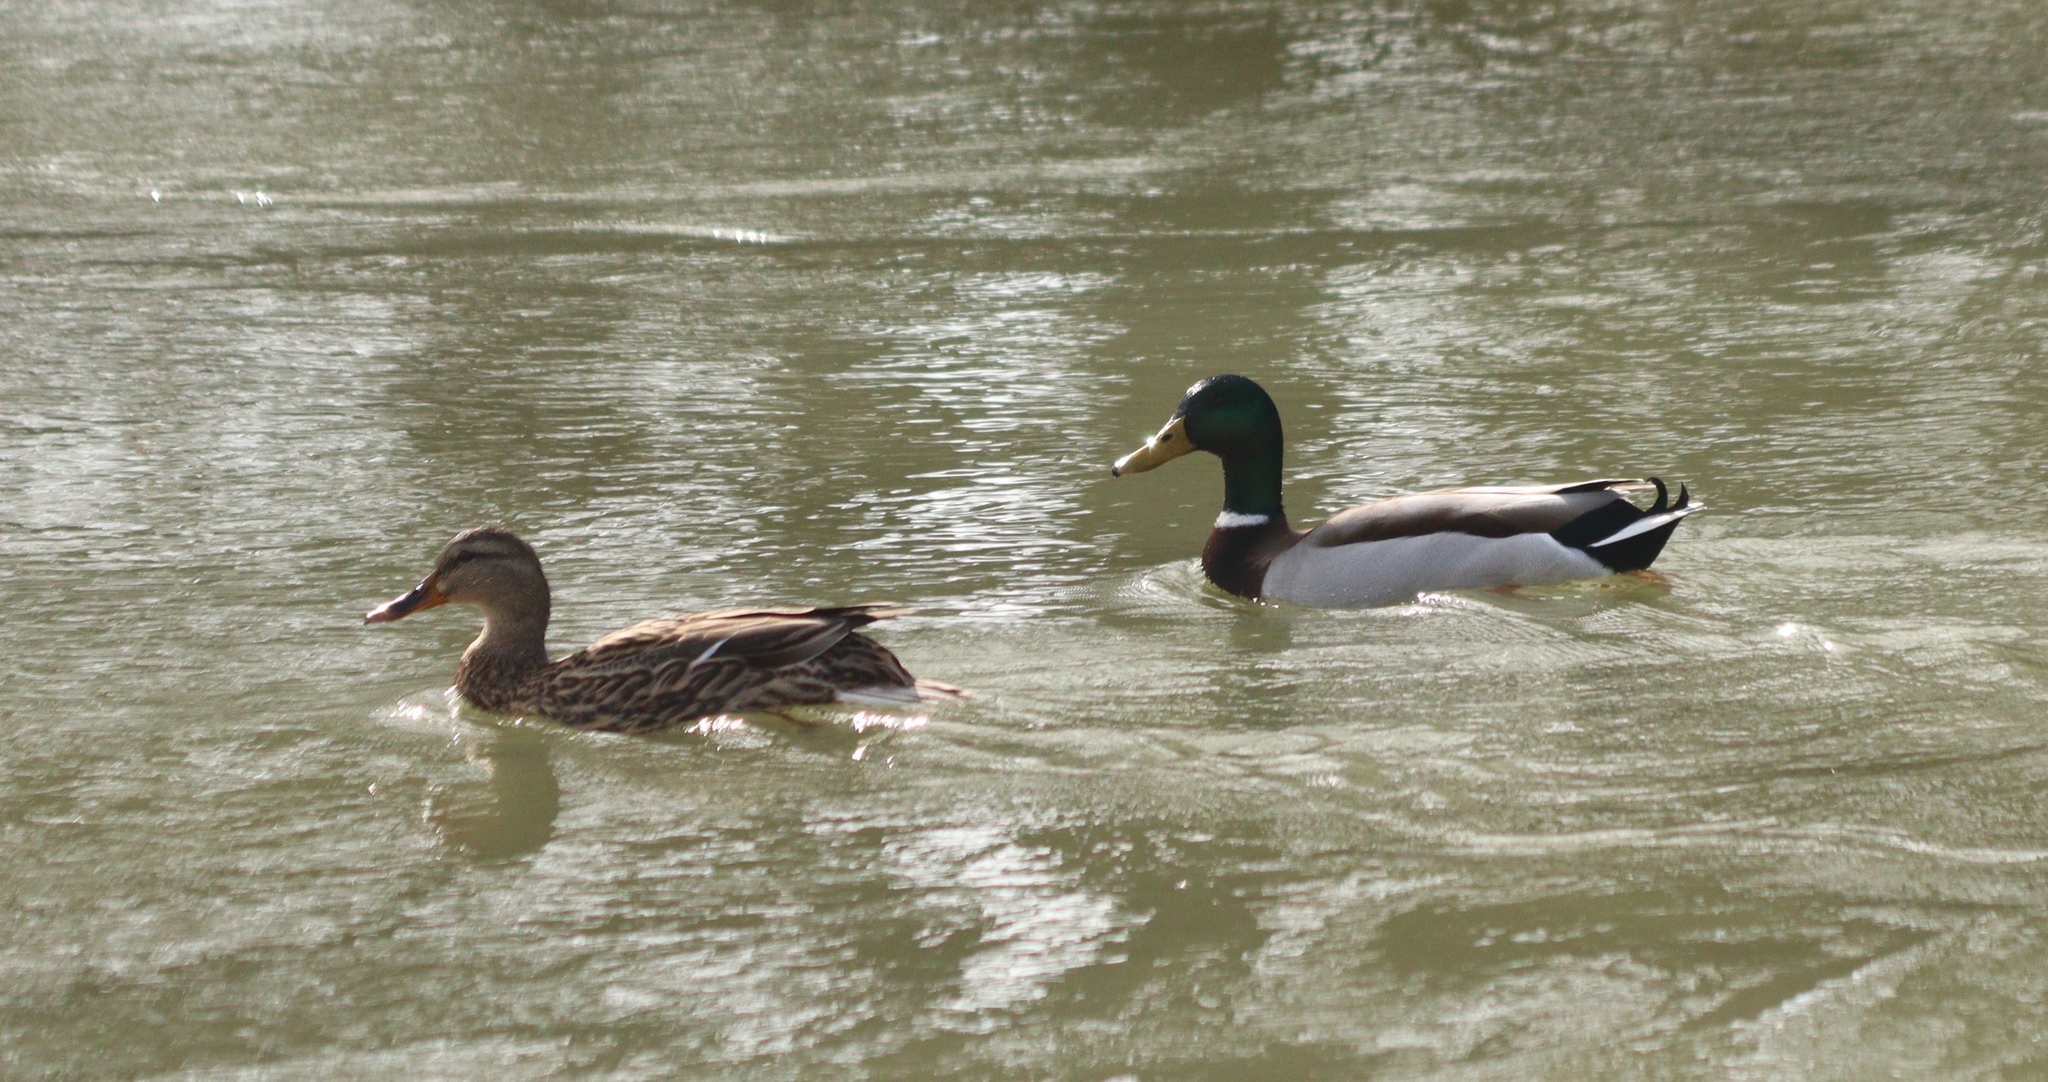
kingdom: Animalia
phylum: Chordata
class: Aves
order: Anseriformes
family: Anatidae
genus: Anas
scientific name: Anas platyrhynchos
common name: Mallard
